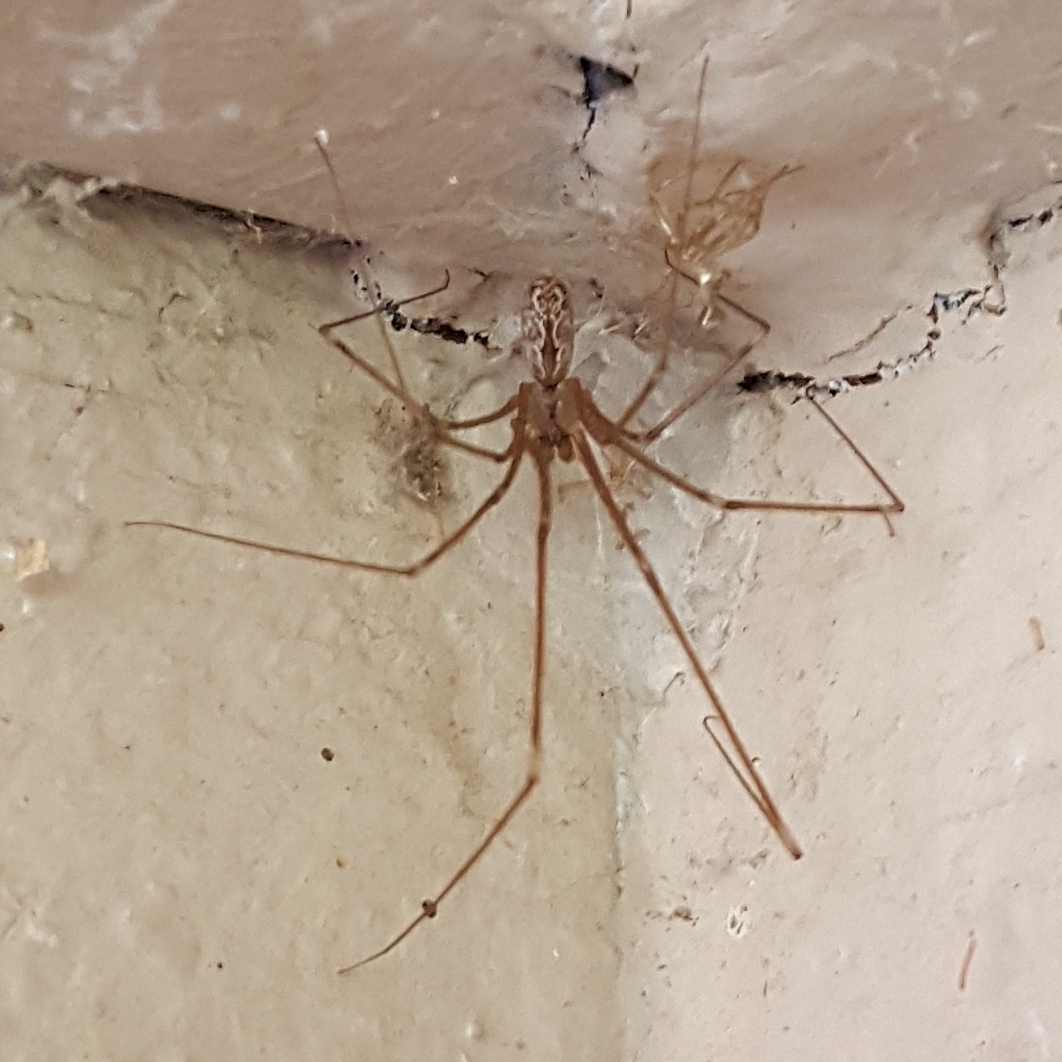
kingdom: Animalia
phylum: Arthropoda
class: Arachnida
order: Araneae
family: Pholcidae
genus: Holocnemus
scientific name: Holocnemus pluchei
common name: Marbled cellar spider
